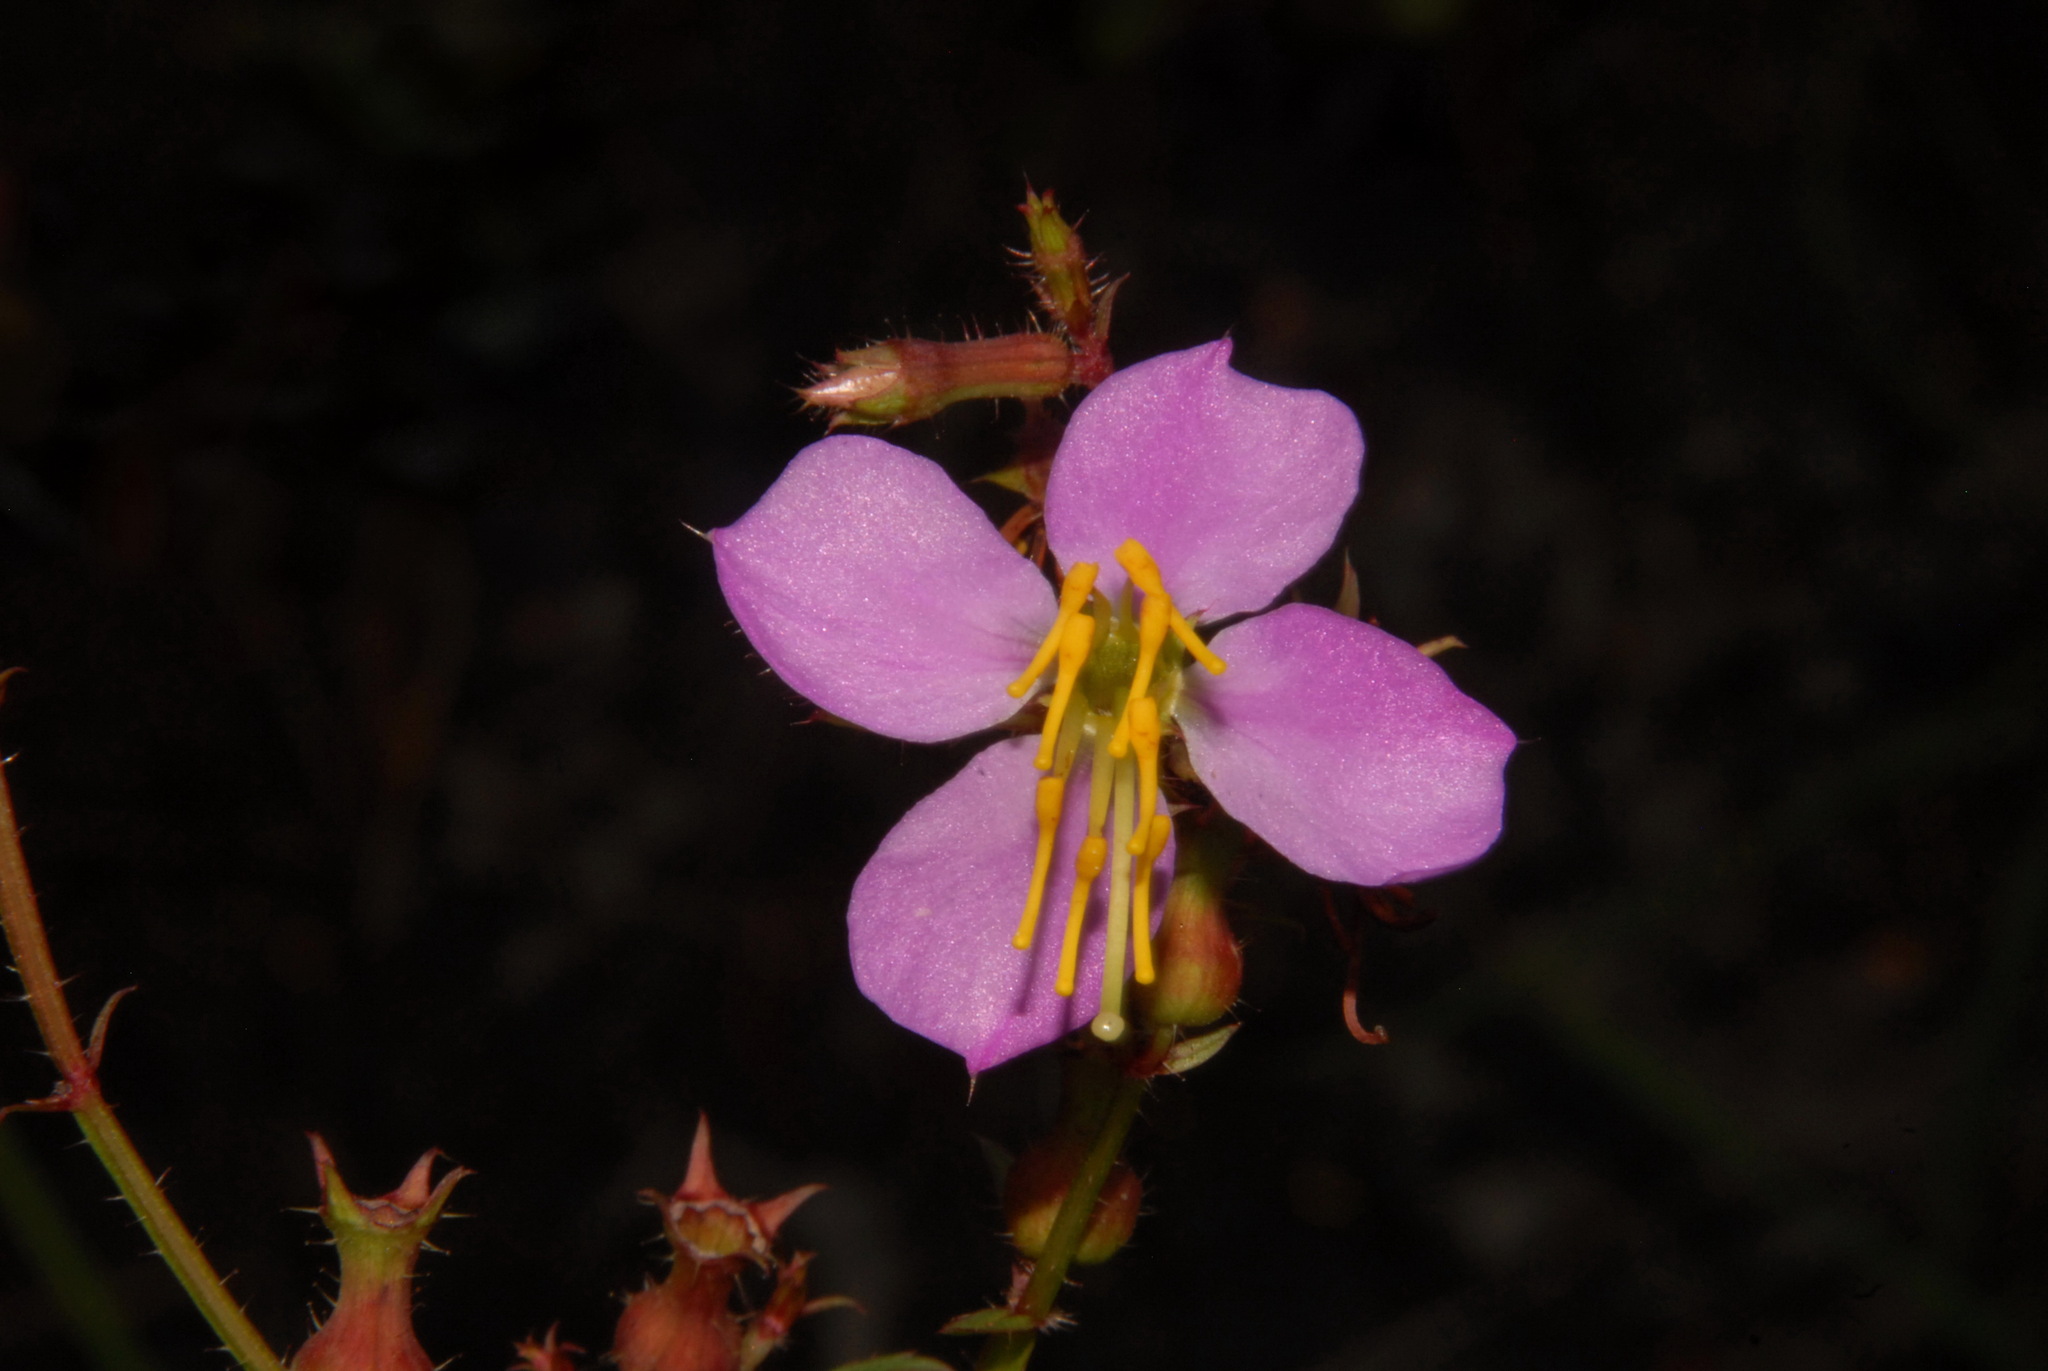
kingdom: Plantae
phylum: Tracheophyta
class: Magnoliopsida
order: Myrtales
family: Melastomataceae
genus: Rhexia
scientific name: Rhexia virginica
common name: Common meadow beauty
